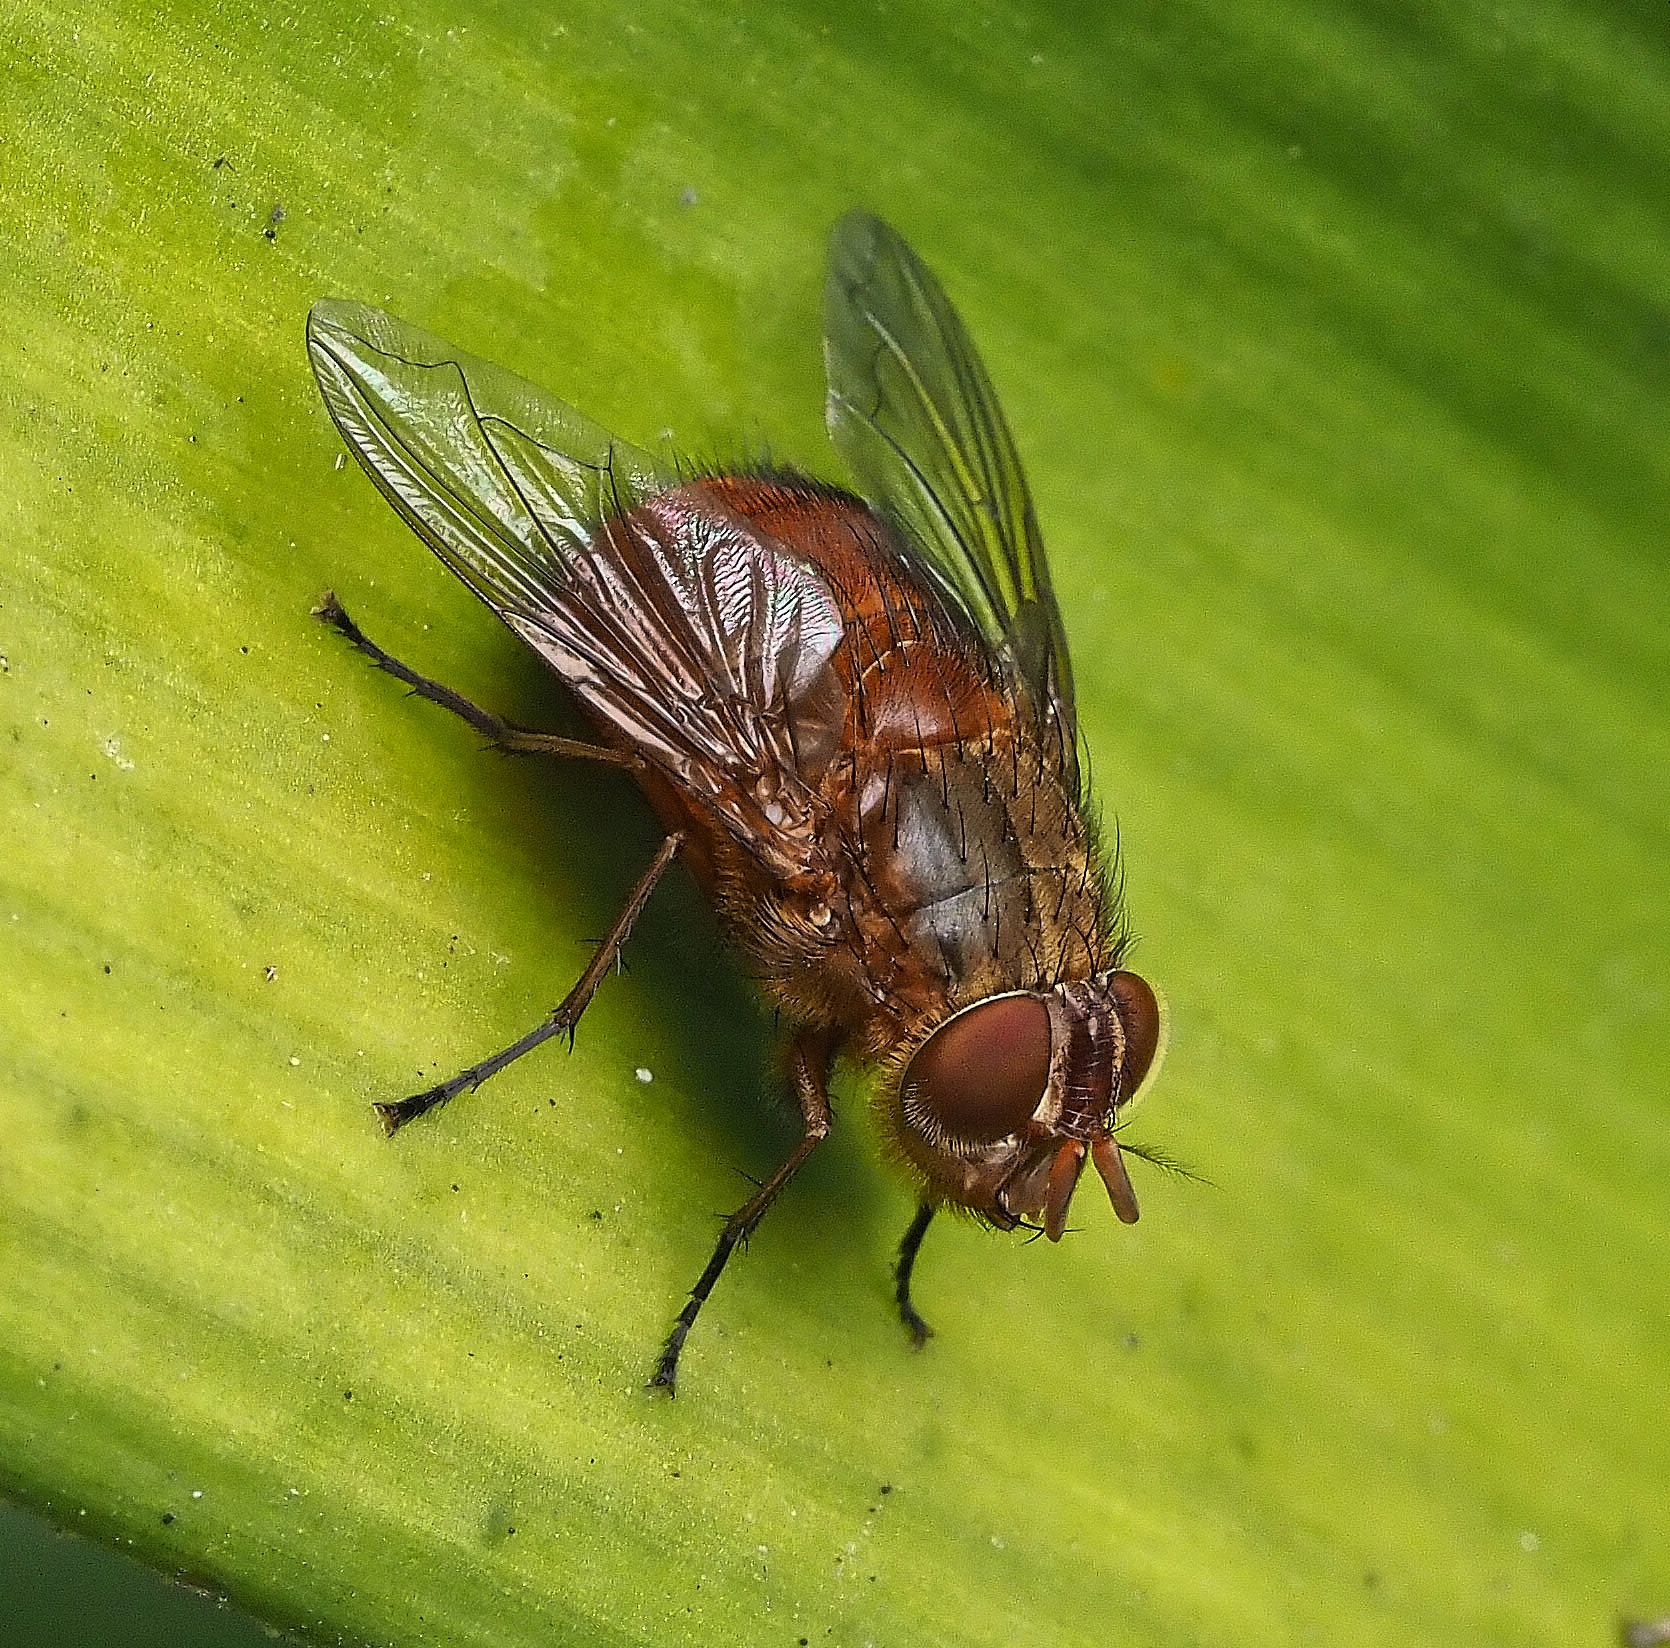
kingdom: Animalia
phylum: Arthropoda
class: Insecta
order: Diptera
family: Calliphoridae
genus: Calliphora
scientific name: Calliphora ochracea
